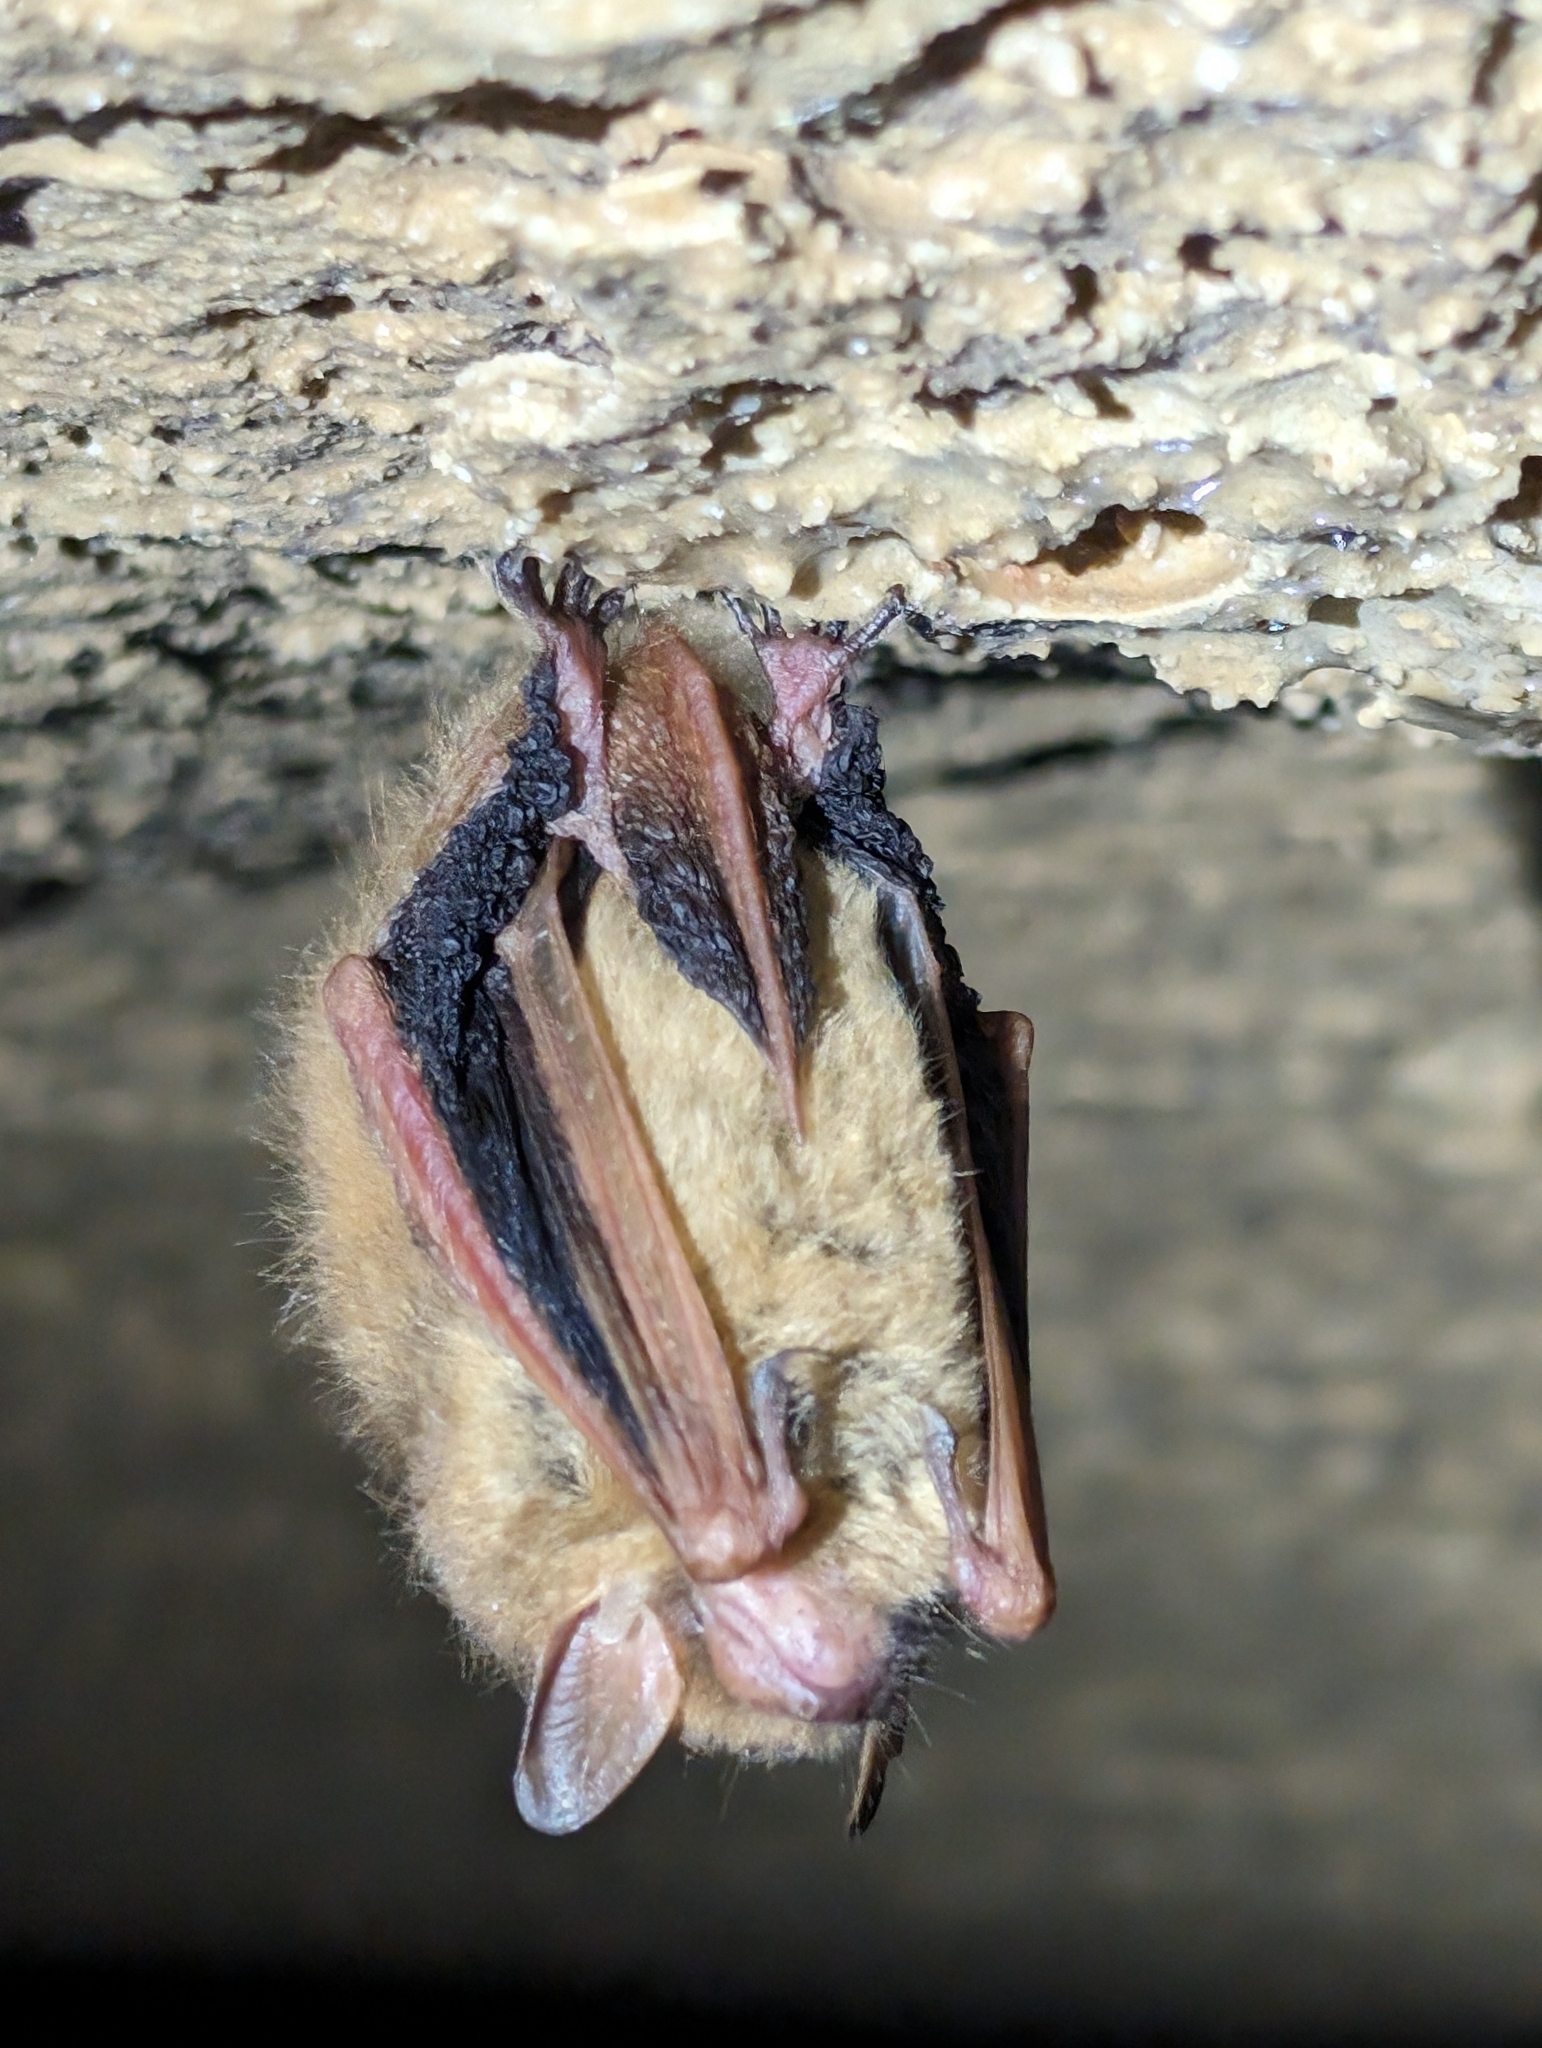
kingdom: Animalia
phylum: Chordata
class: Mammalia
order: Chiroptera
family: Vespertilionidae
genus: Perimyotis
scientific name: Perimyotis subflavus
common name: Eastern pipistrelle
